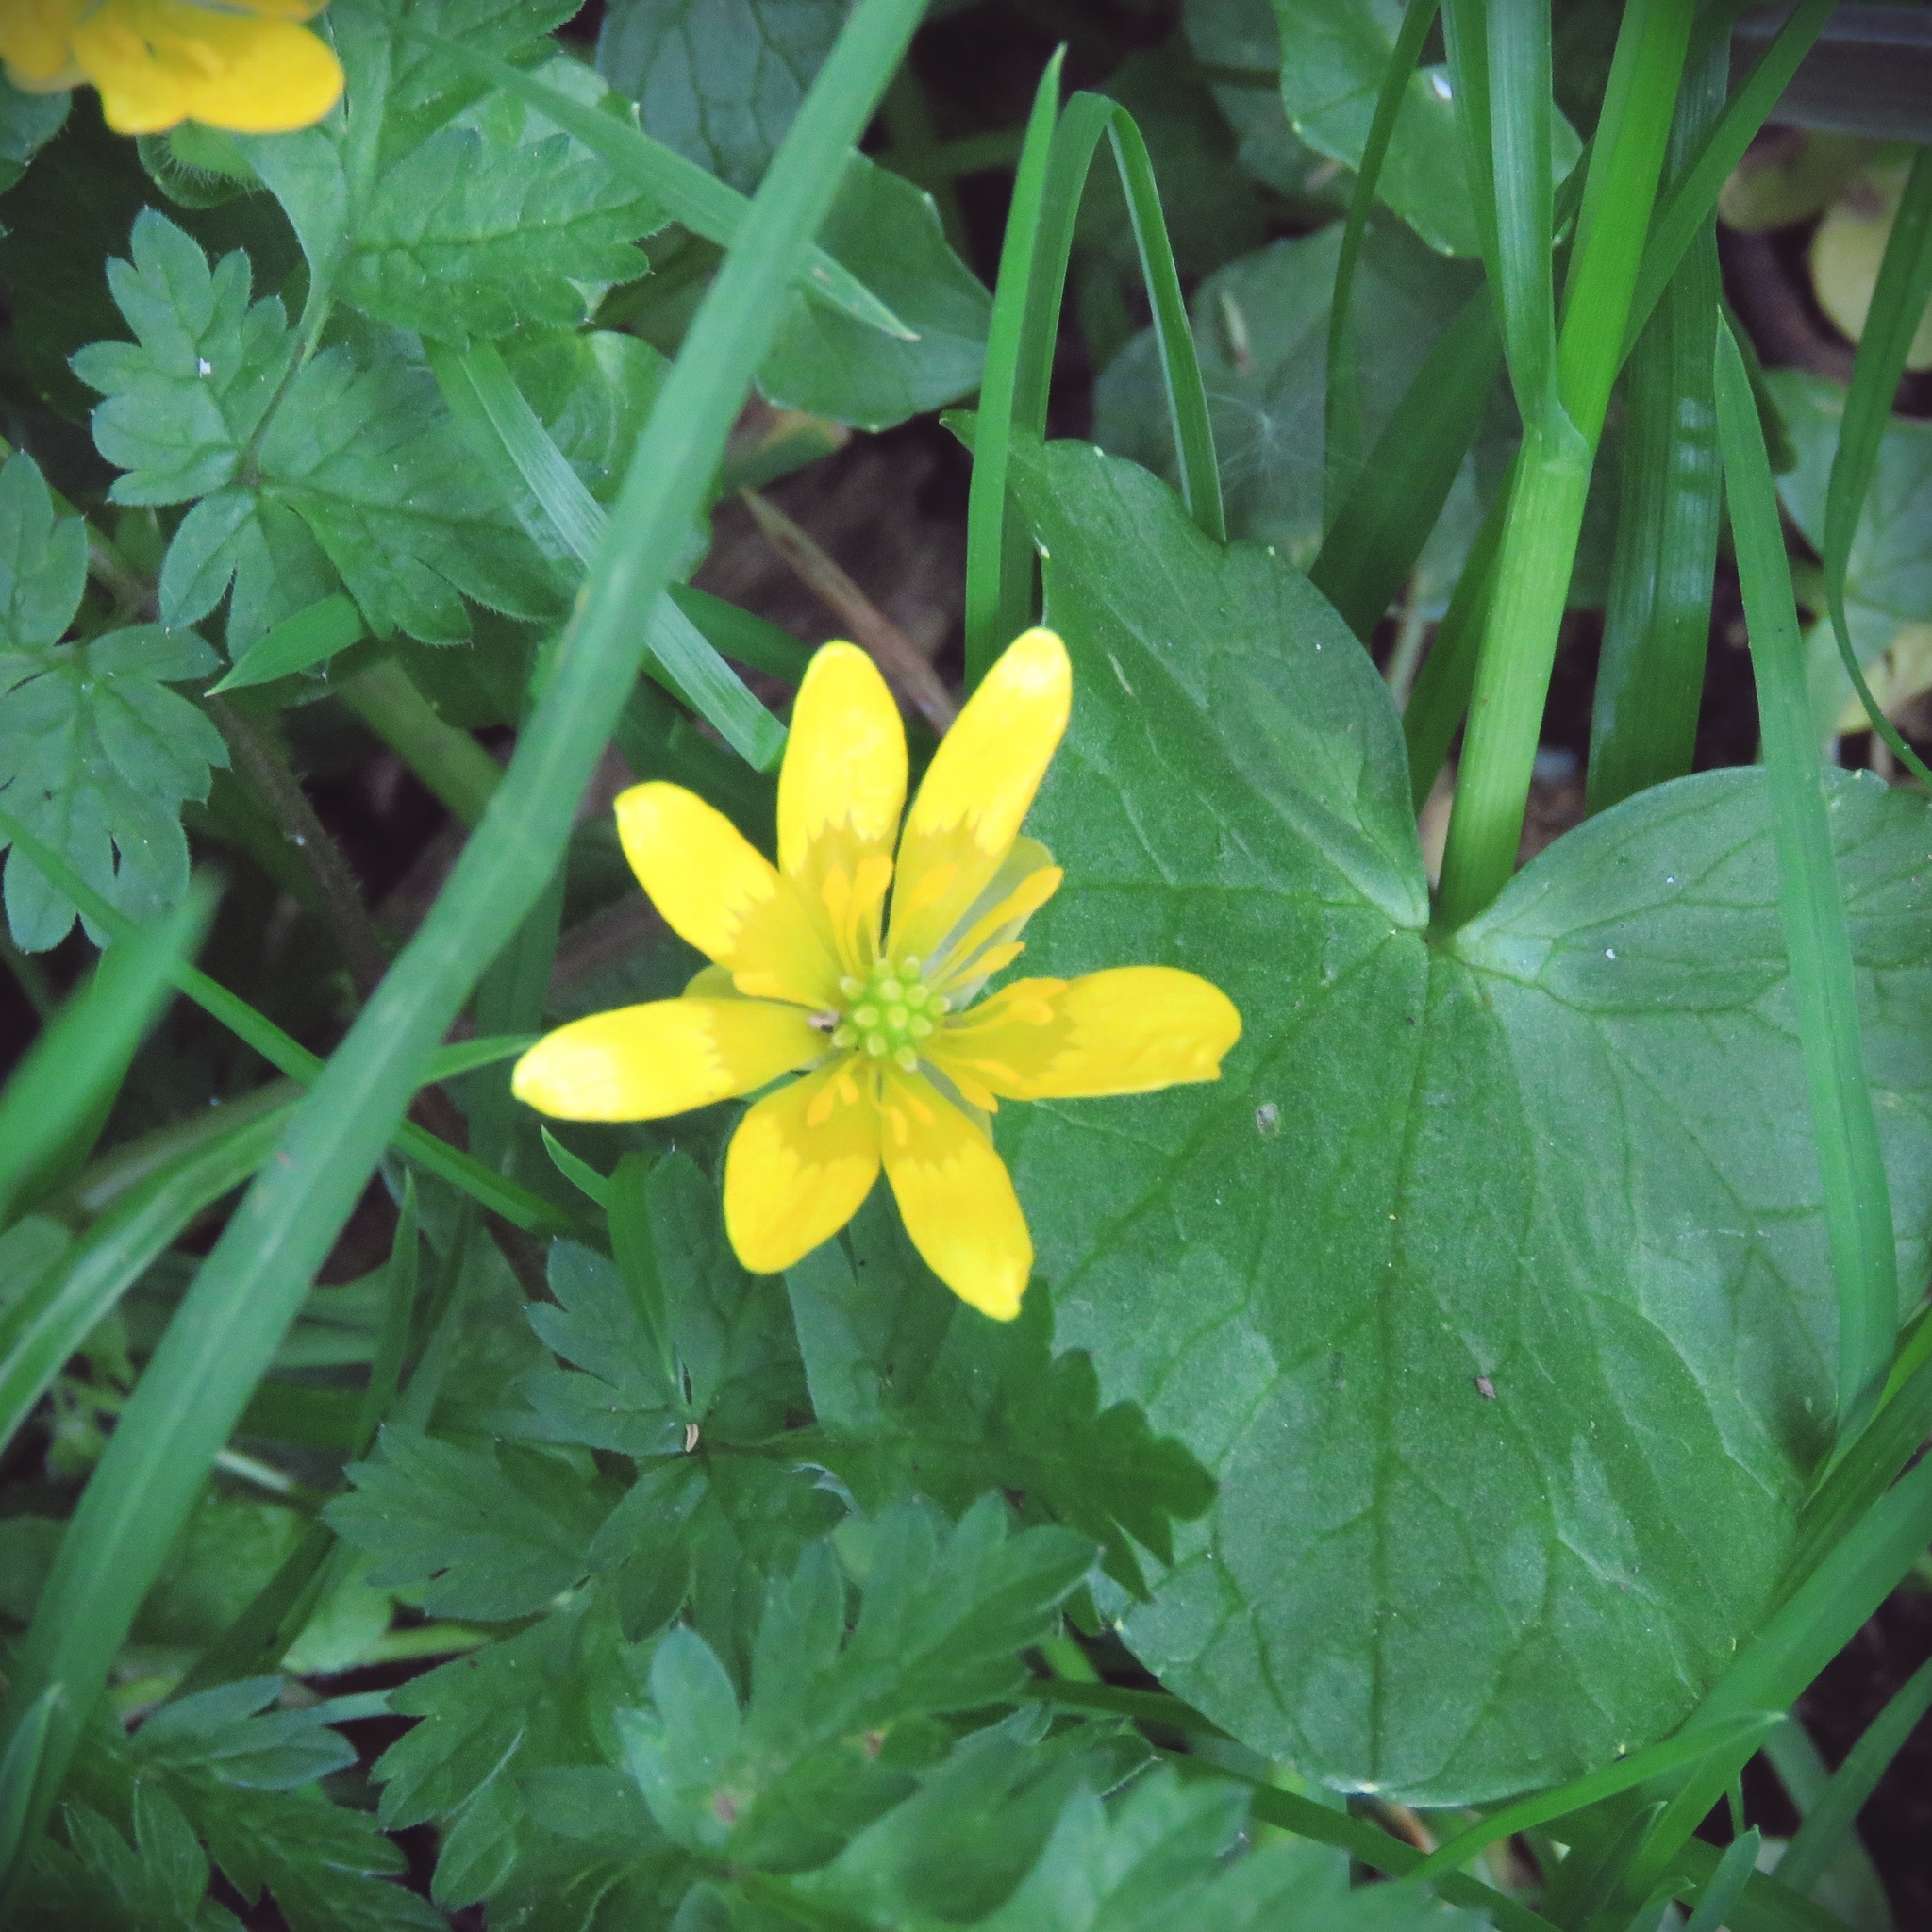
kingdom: Plantae
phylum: Tracheophyta
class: Magnoliopsida
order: Ranunculales
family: Ranunculaceae
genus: Ficaria
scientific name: Ficaria verna
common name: Lesser celandine
